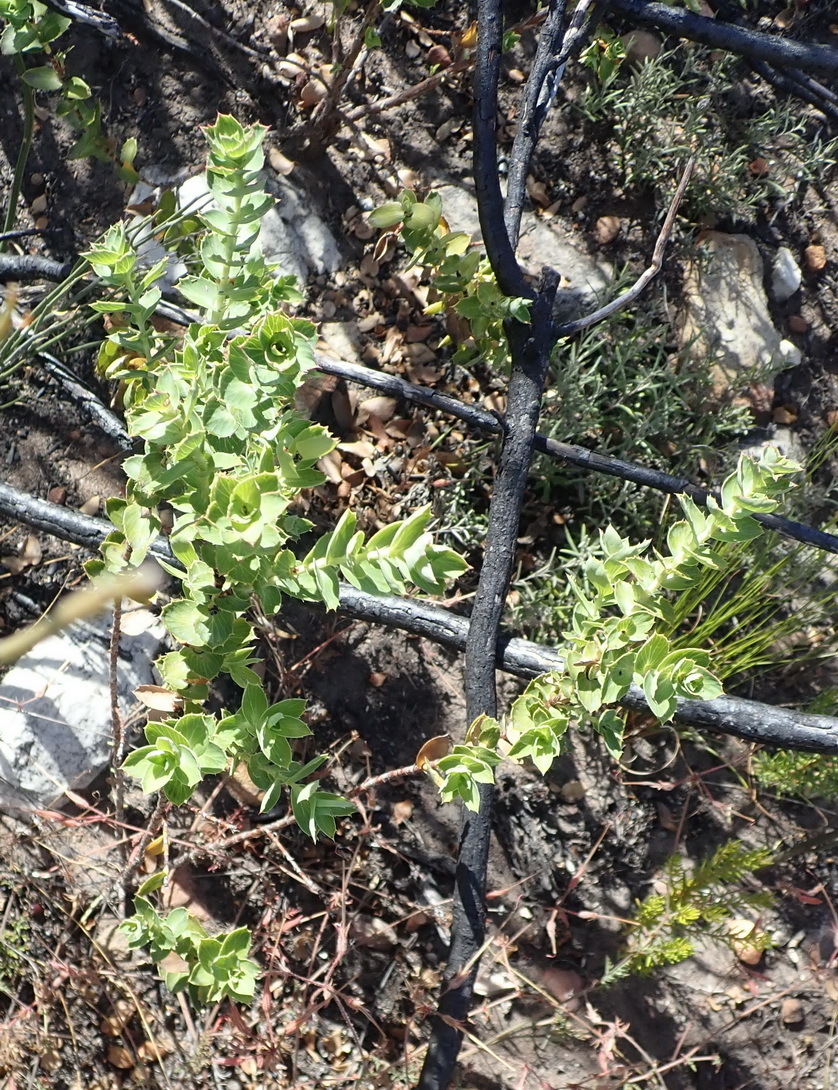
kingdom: Plantae
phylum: Tracheophyta
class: Magnoliopsida
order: Rosales
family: Rosaceae
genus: Cliffortia
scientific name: Cliffortia ilicifolia
